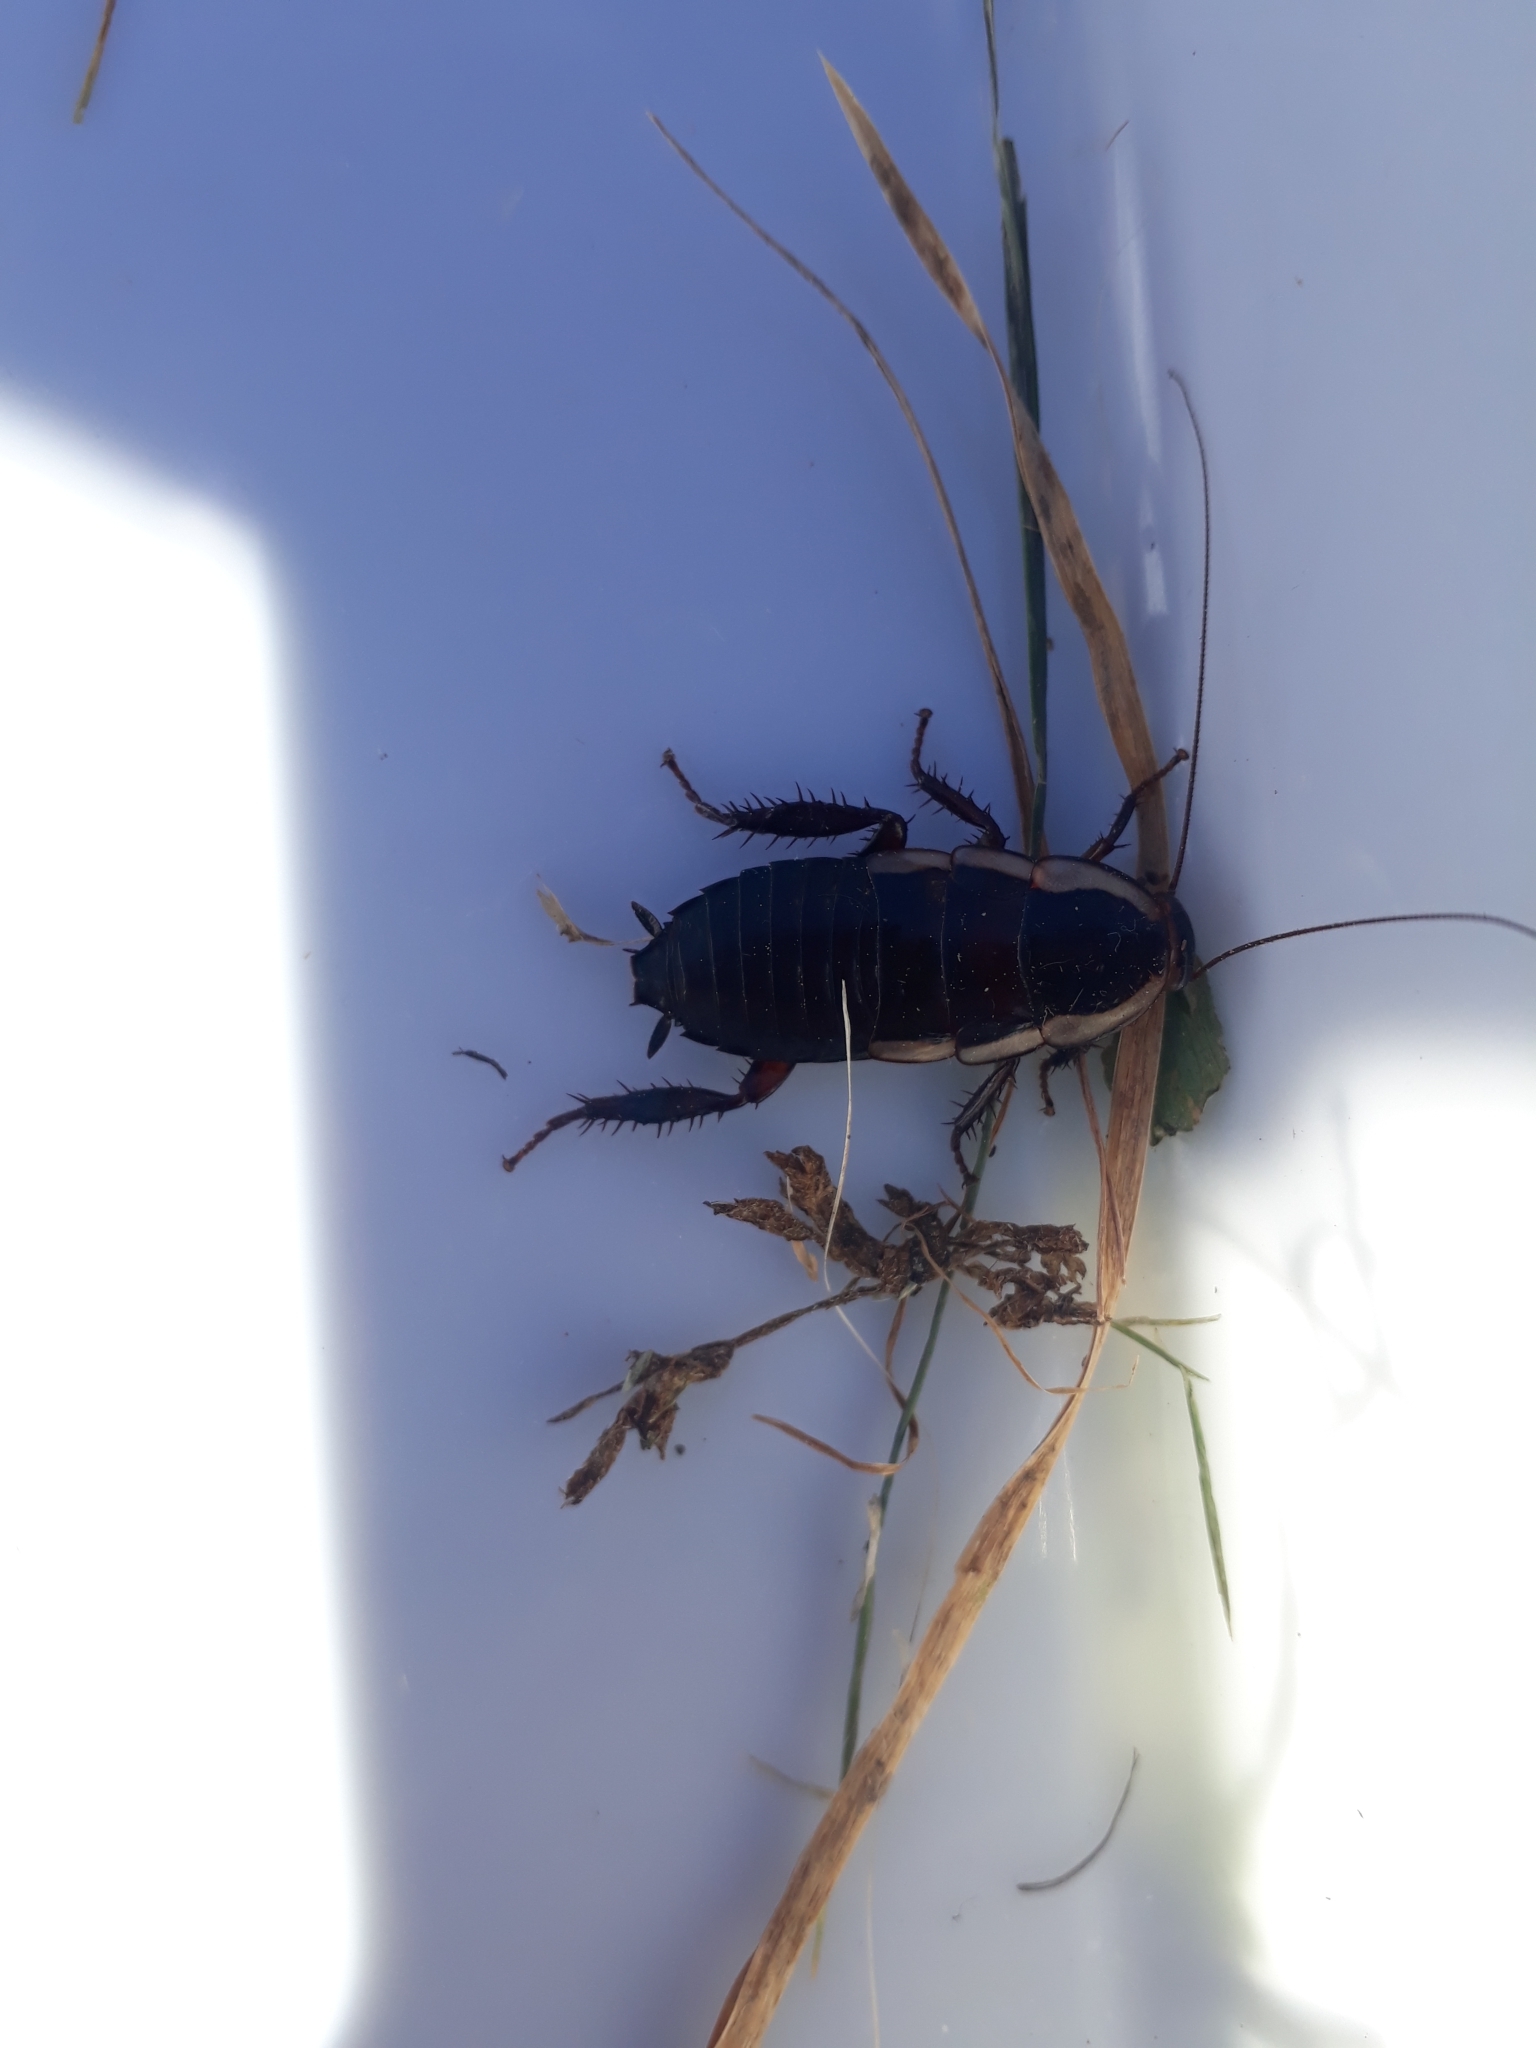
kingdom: Animalia
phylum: Arthropoda
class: Insecta
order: Blattodea
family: Blattidae
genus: Drymaplaneta
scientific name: Drymaplaneta semivitta
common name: Gisborne cockroach
